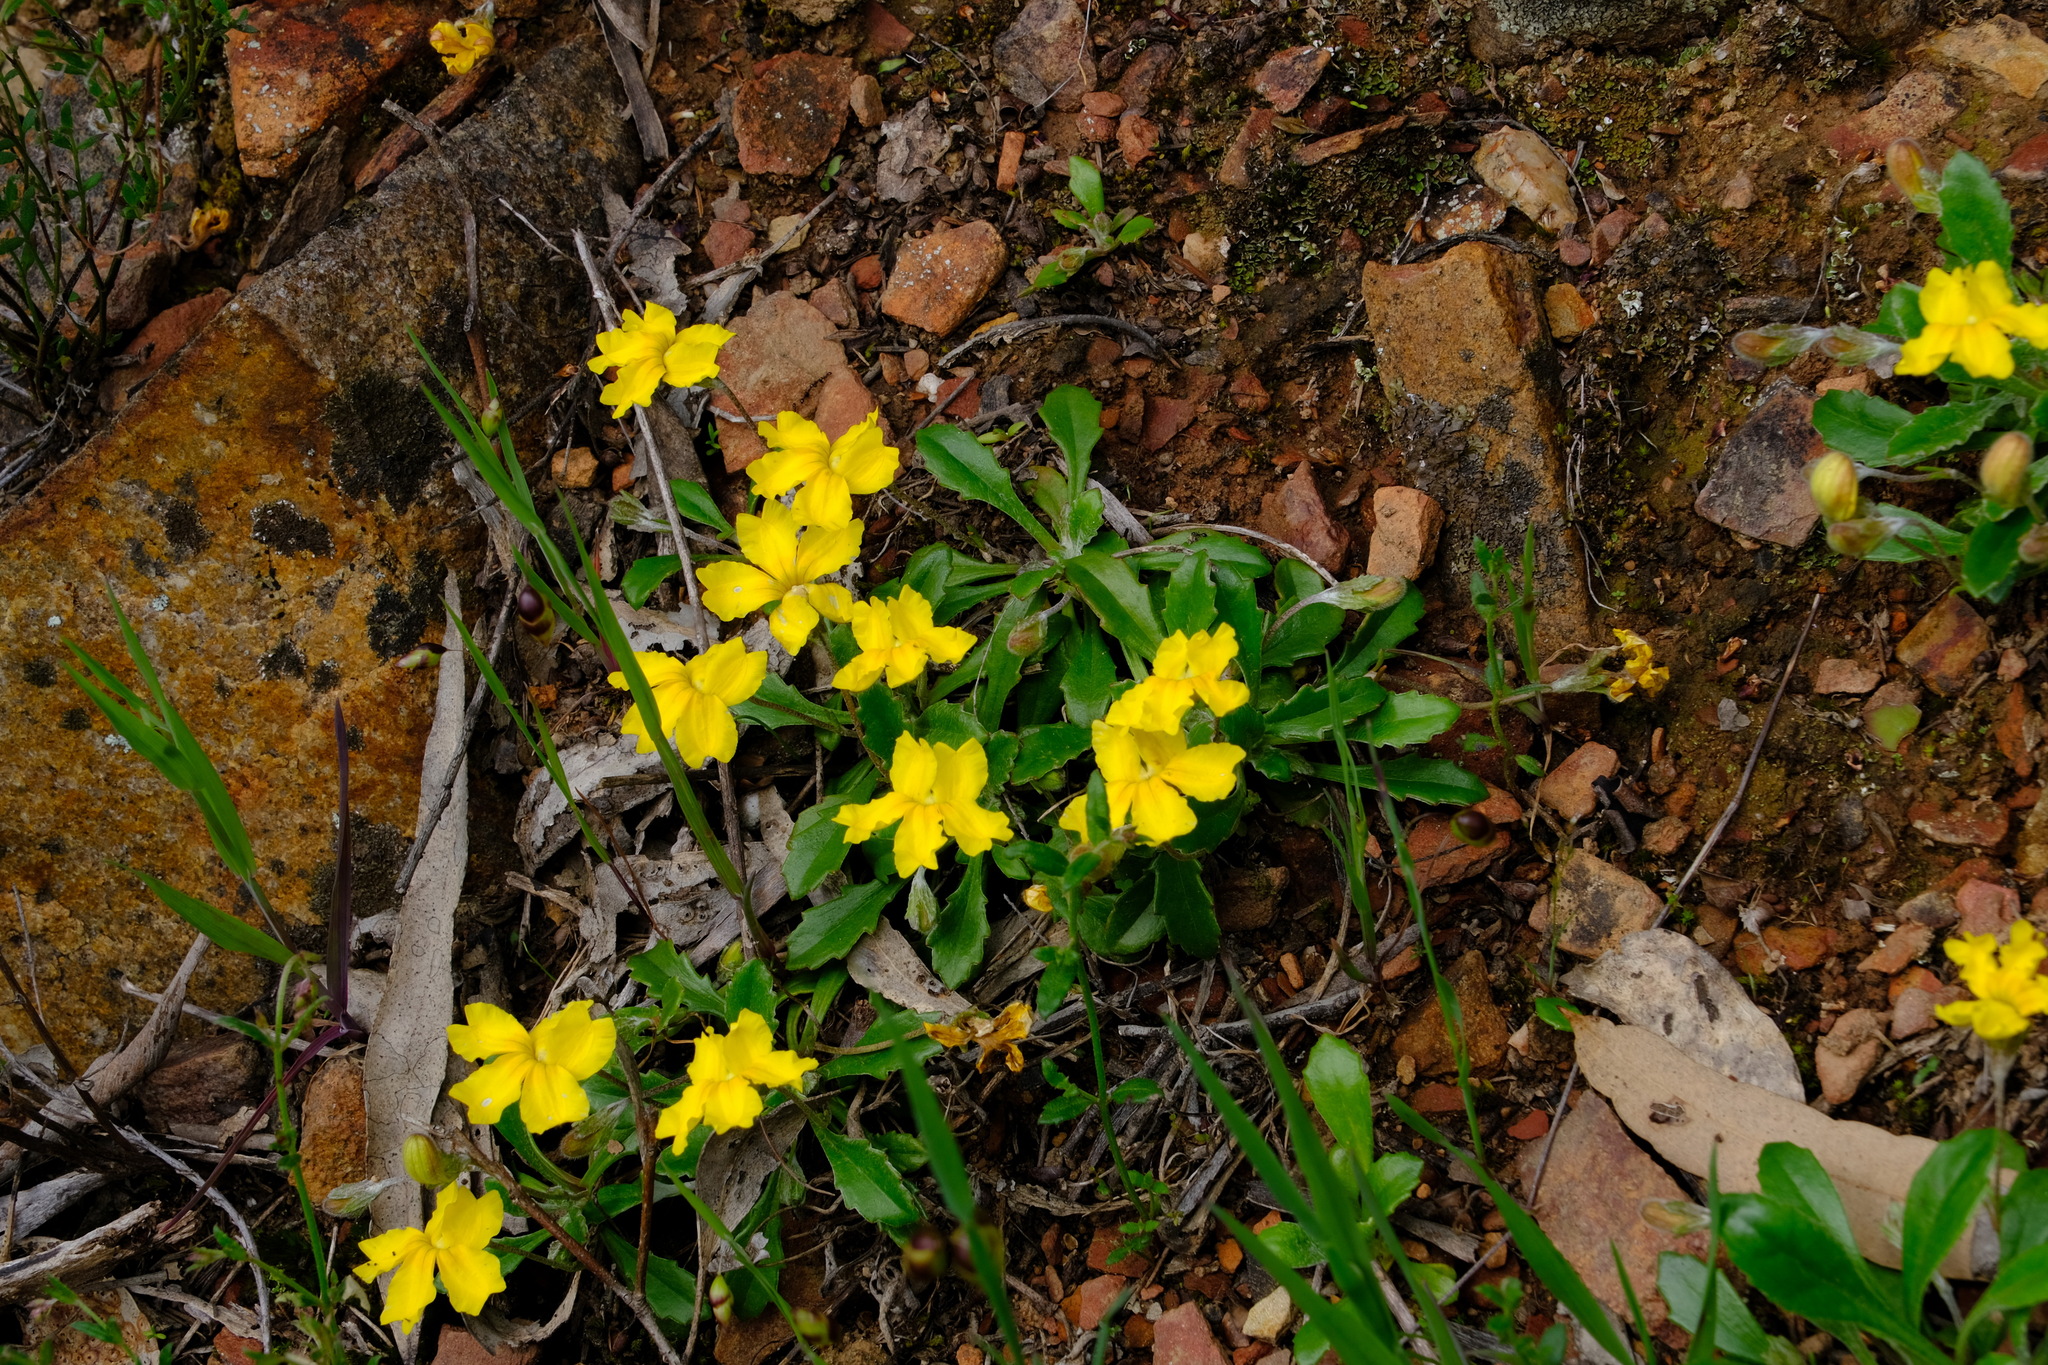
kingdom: Plantae
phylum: Tracheophyta
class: Magnoliopsida
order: Asterales
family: Goodeniaceae
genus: Goodenia
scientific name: Goodenia blackiana
